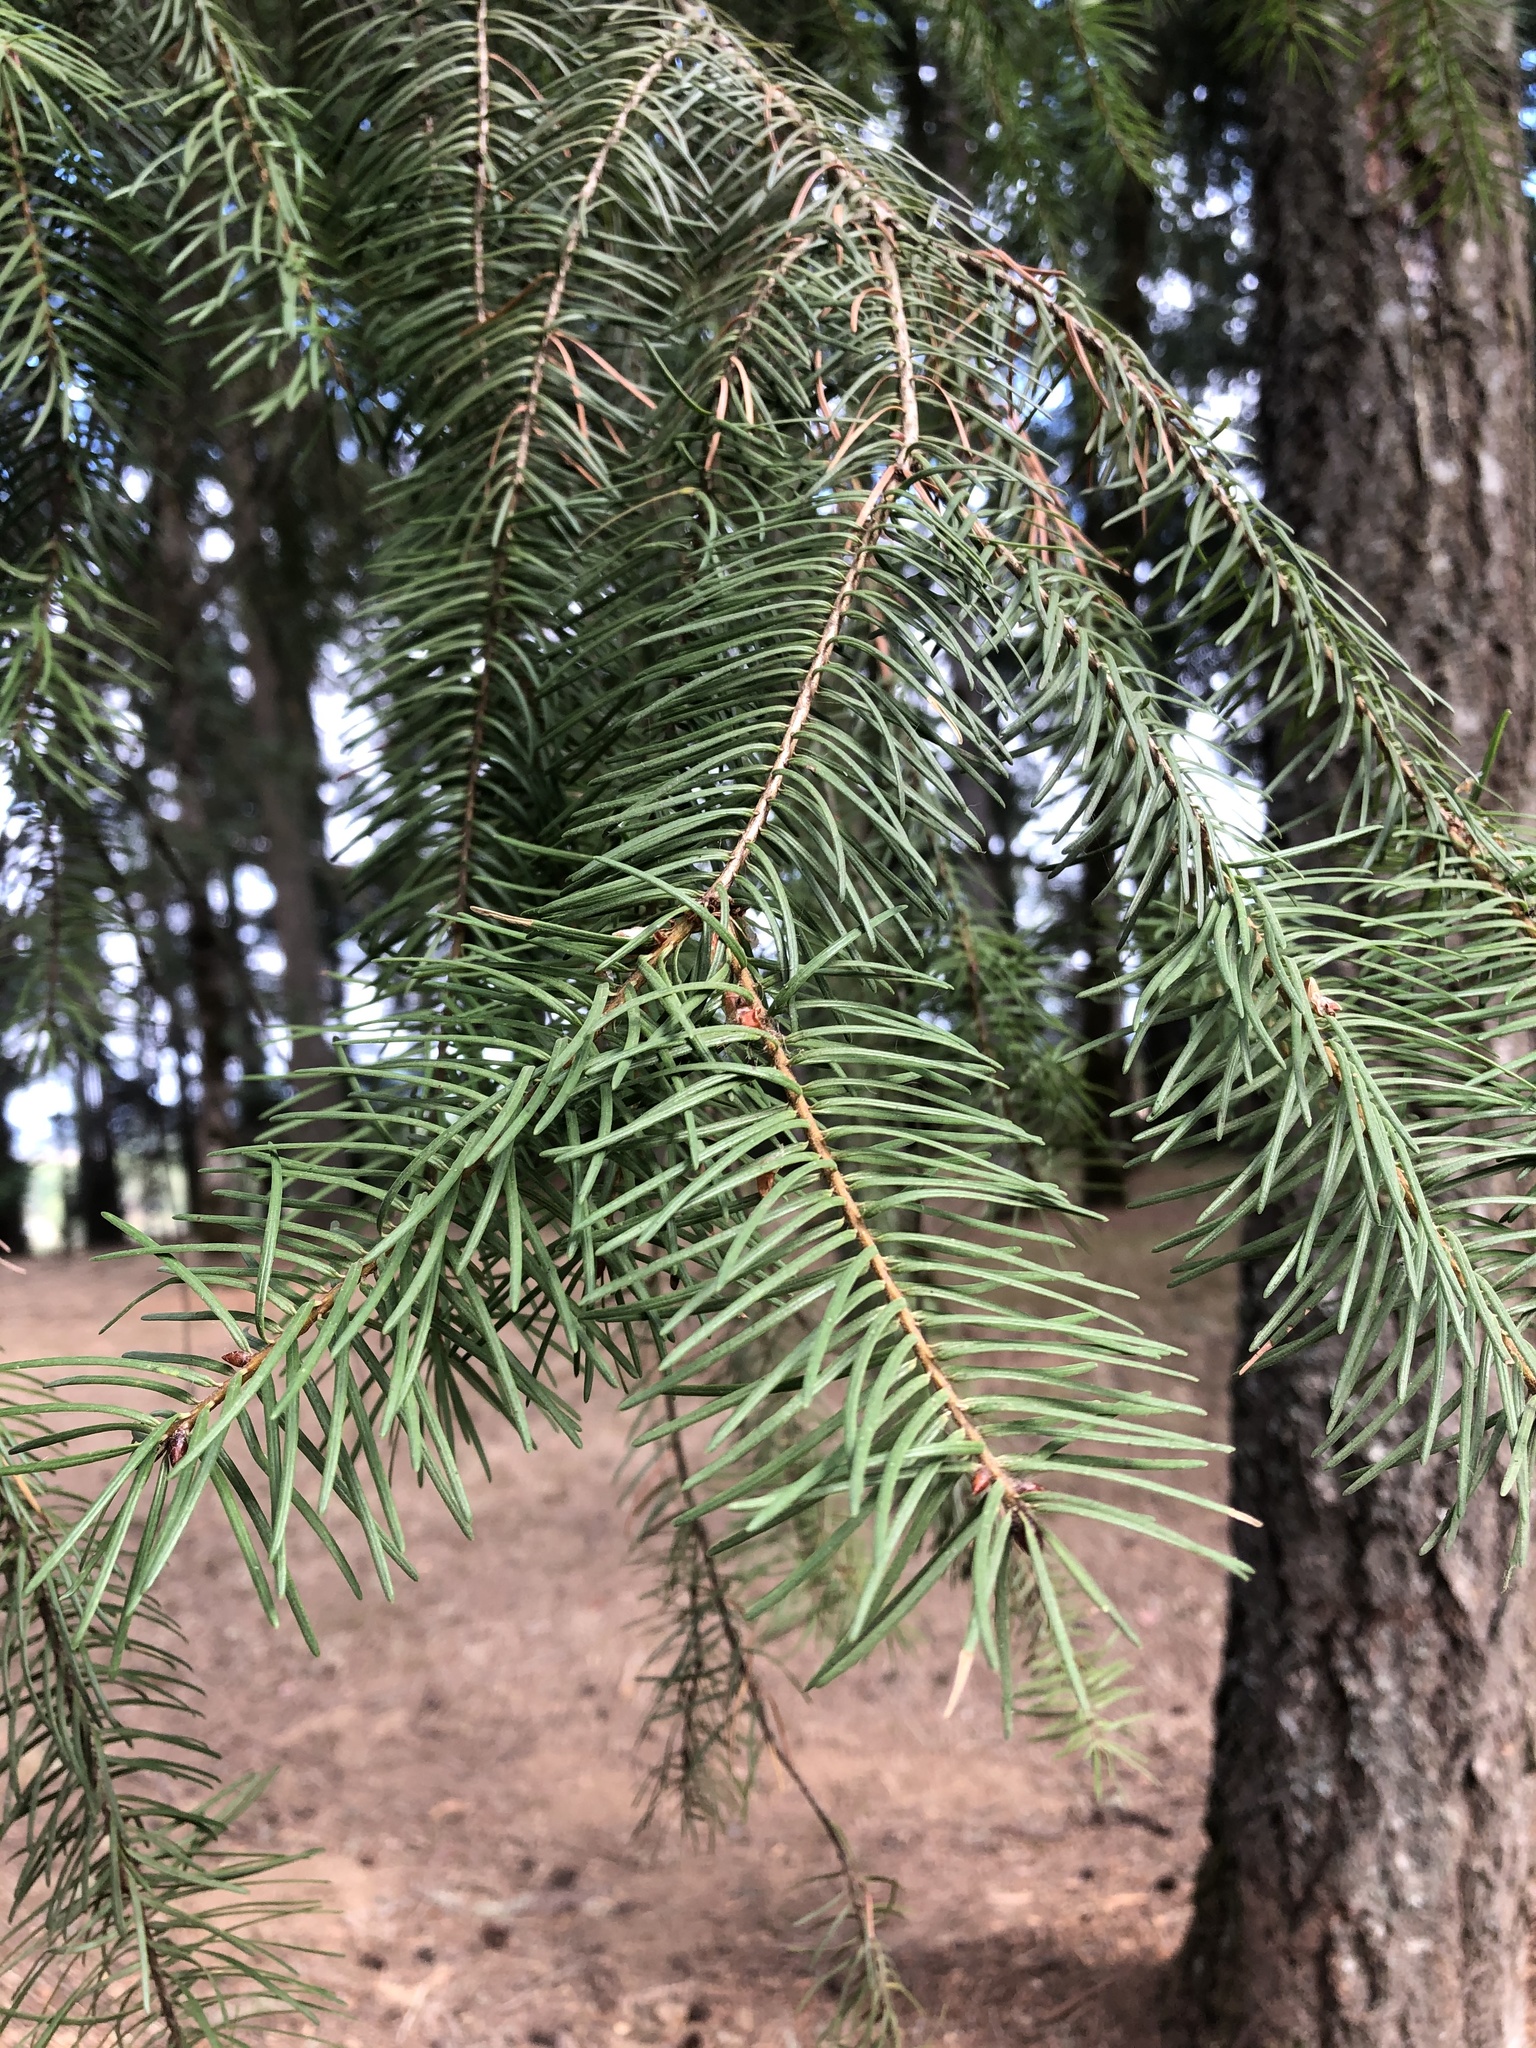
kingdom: Plantae
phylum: Tracheophyta
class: Pinopsida
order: Pinales
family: Pinaceae
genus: Pseudotsuga
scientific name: Pseudotsuga menziesii
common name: Douglas fir
